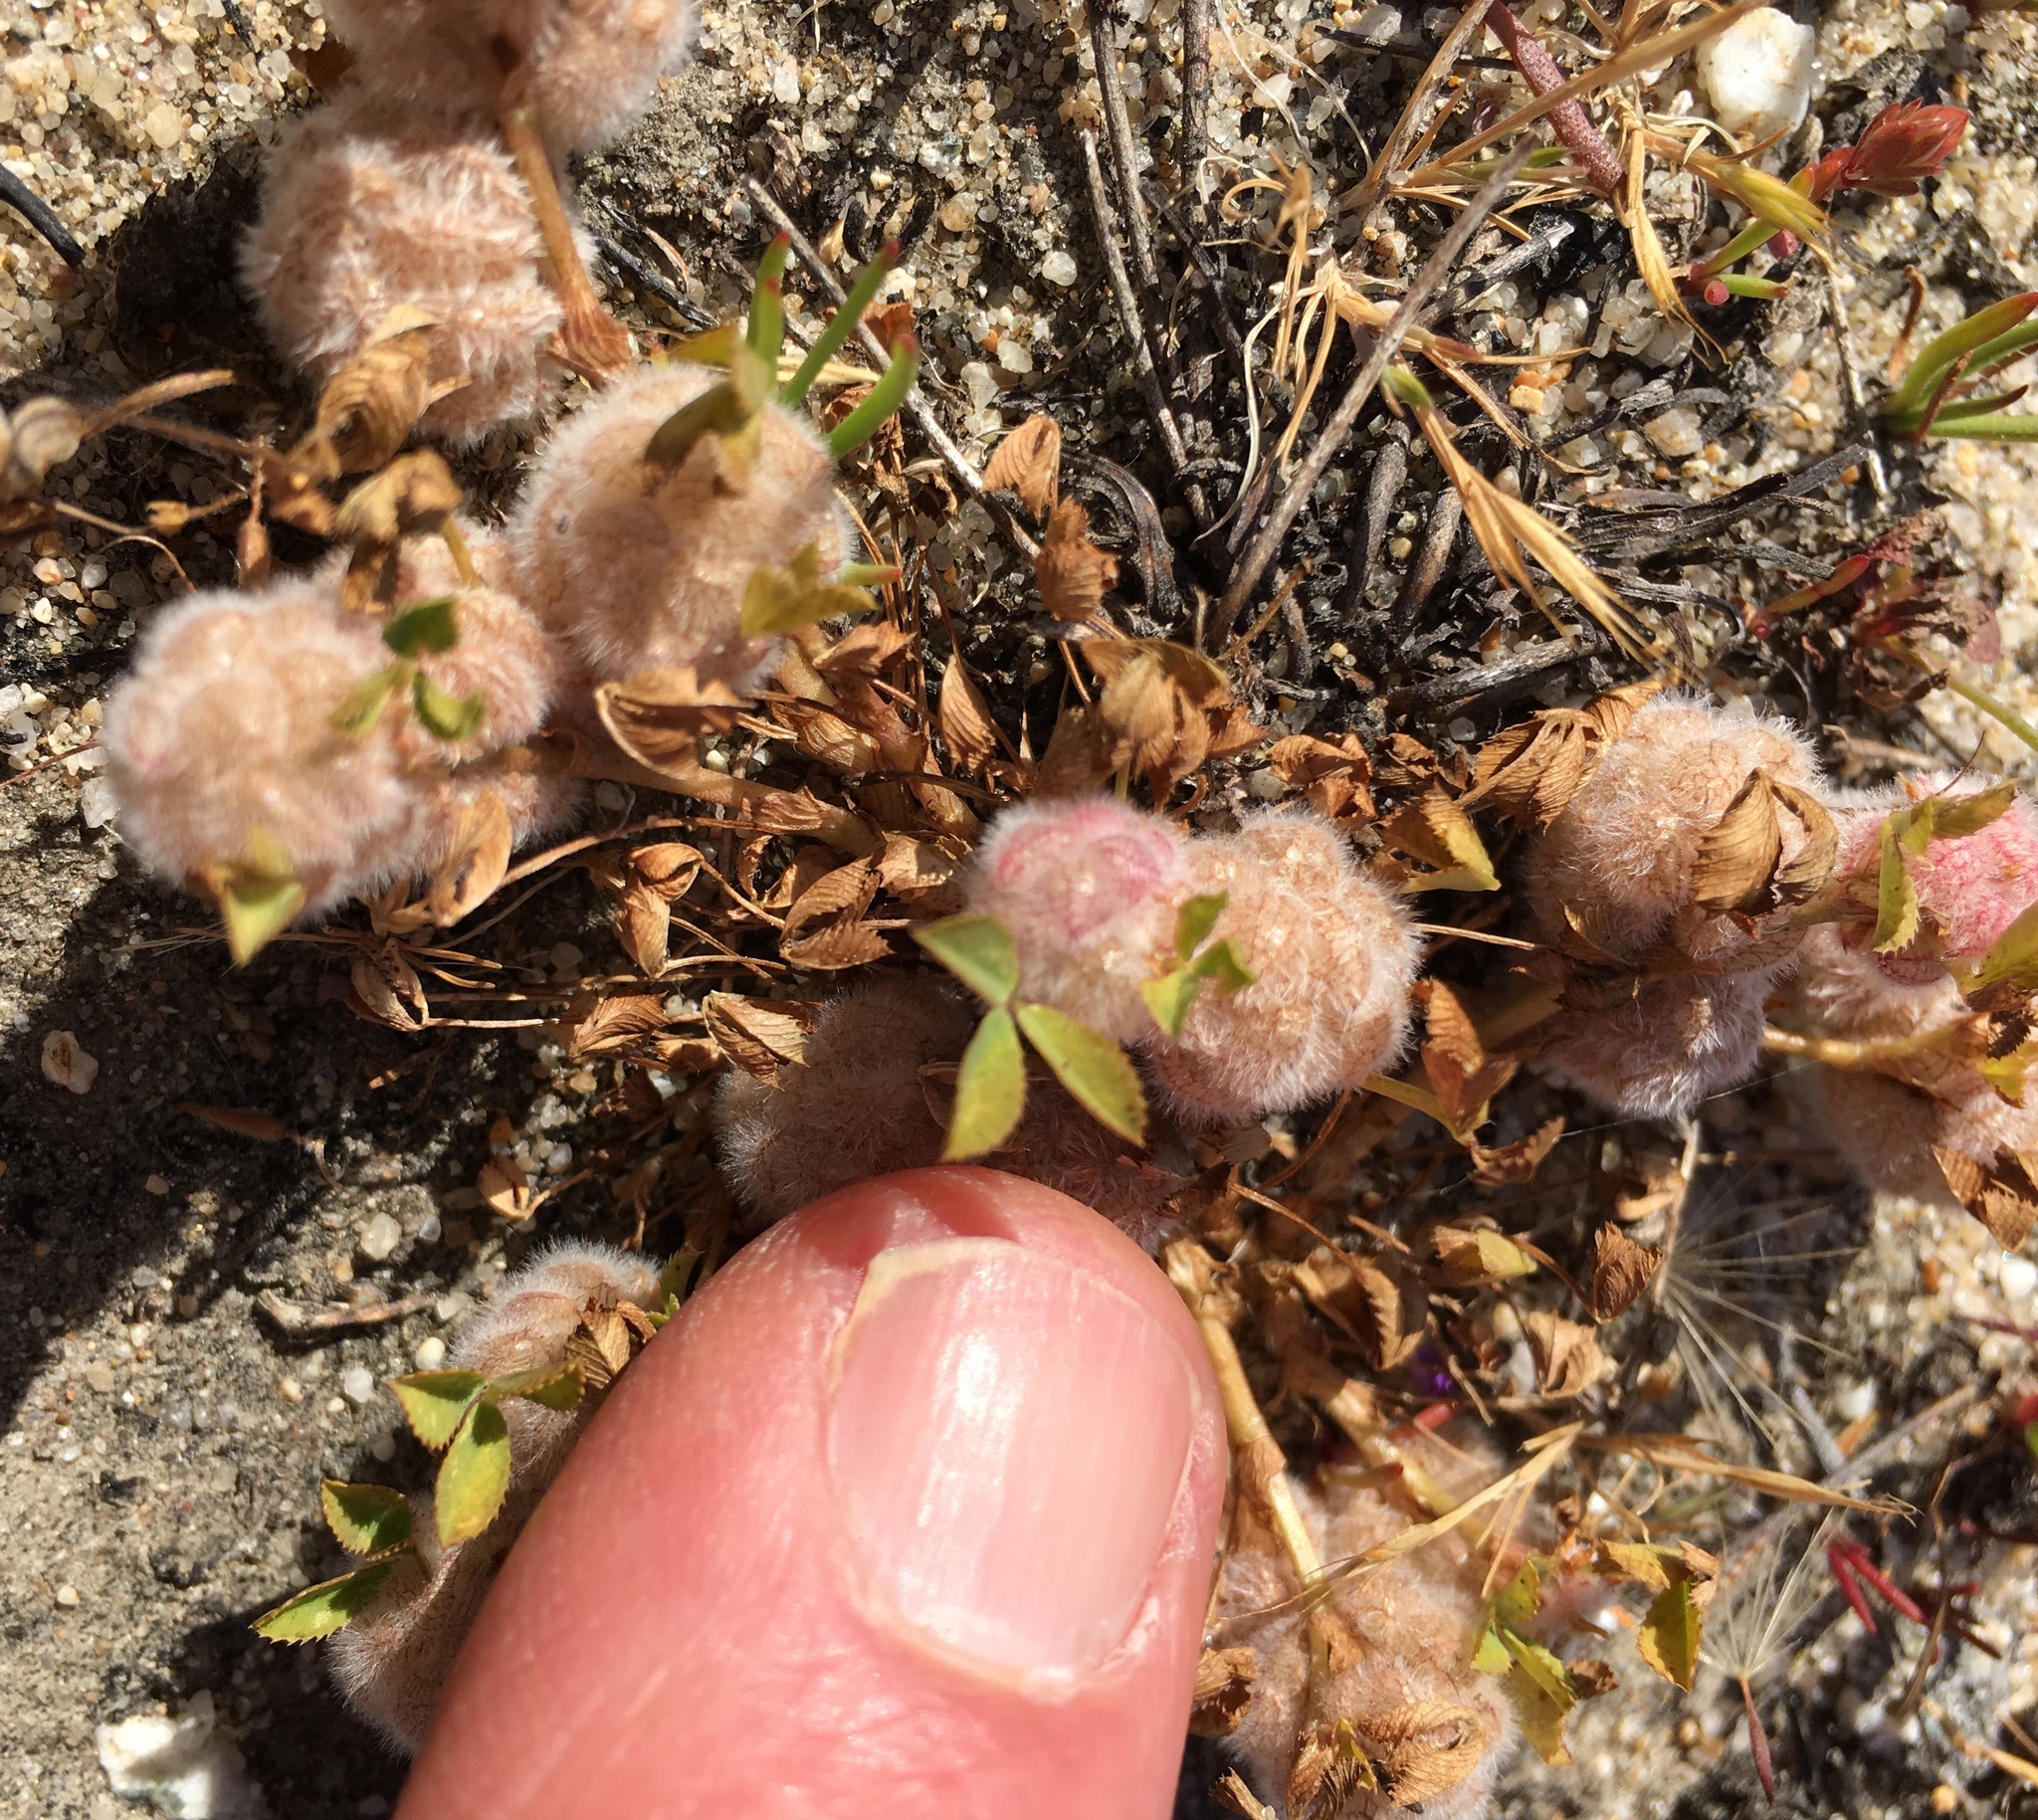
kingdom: Plantae
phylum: Tracheophyta
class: Magnoliopsida
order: Fabales
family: Fabaceae
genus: Trifolium
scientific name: Trifolium tomentosum
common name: Woolly clover
